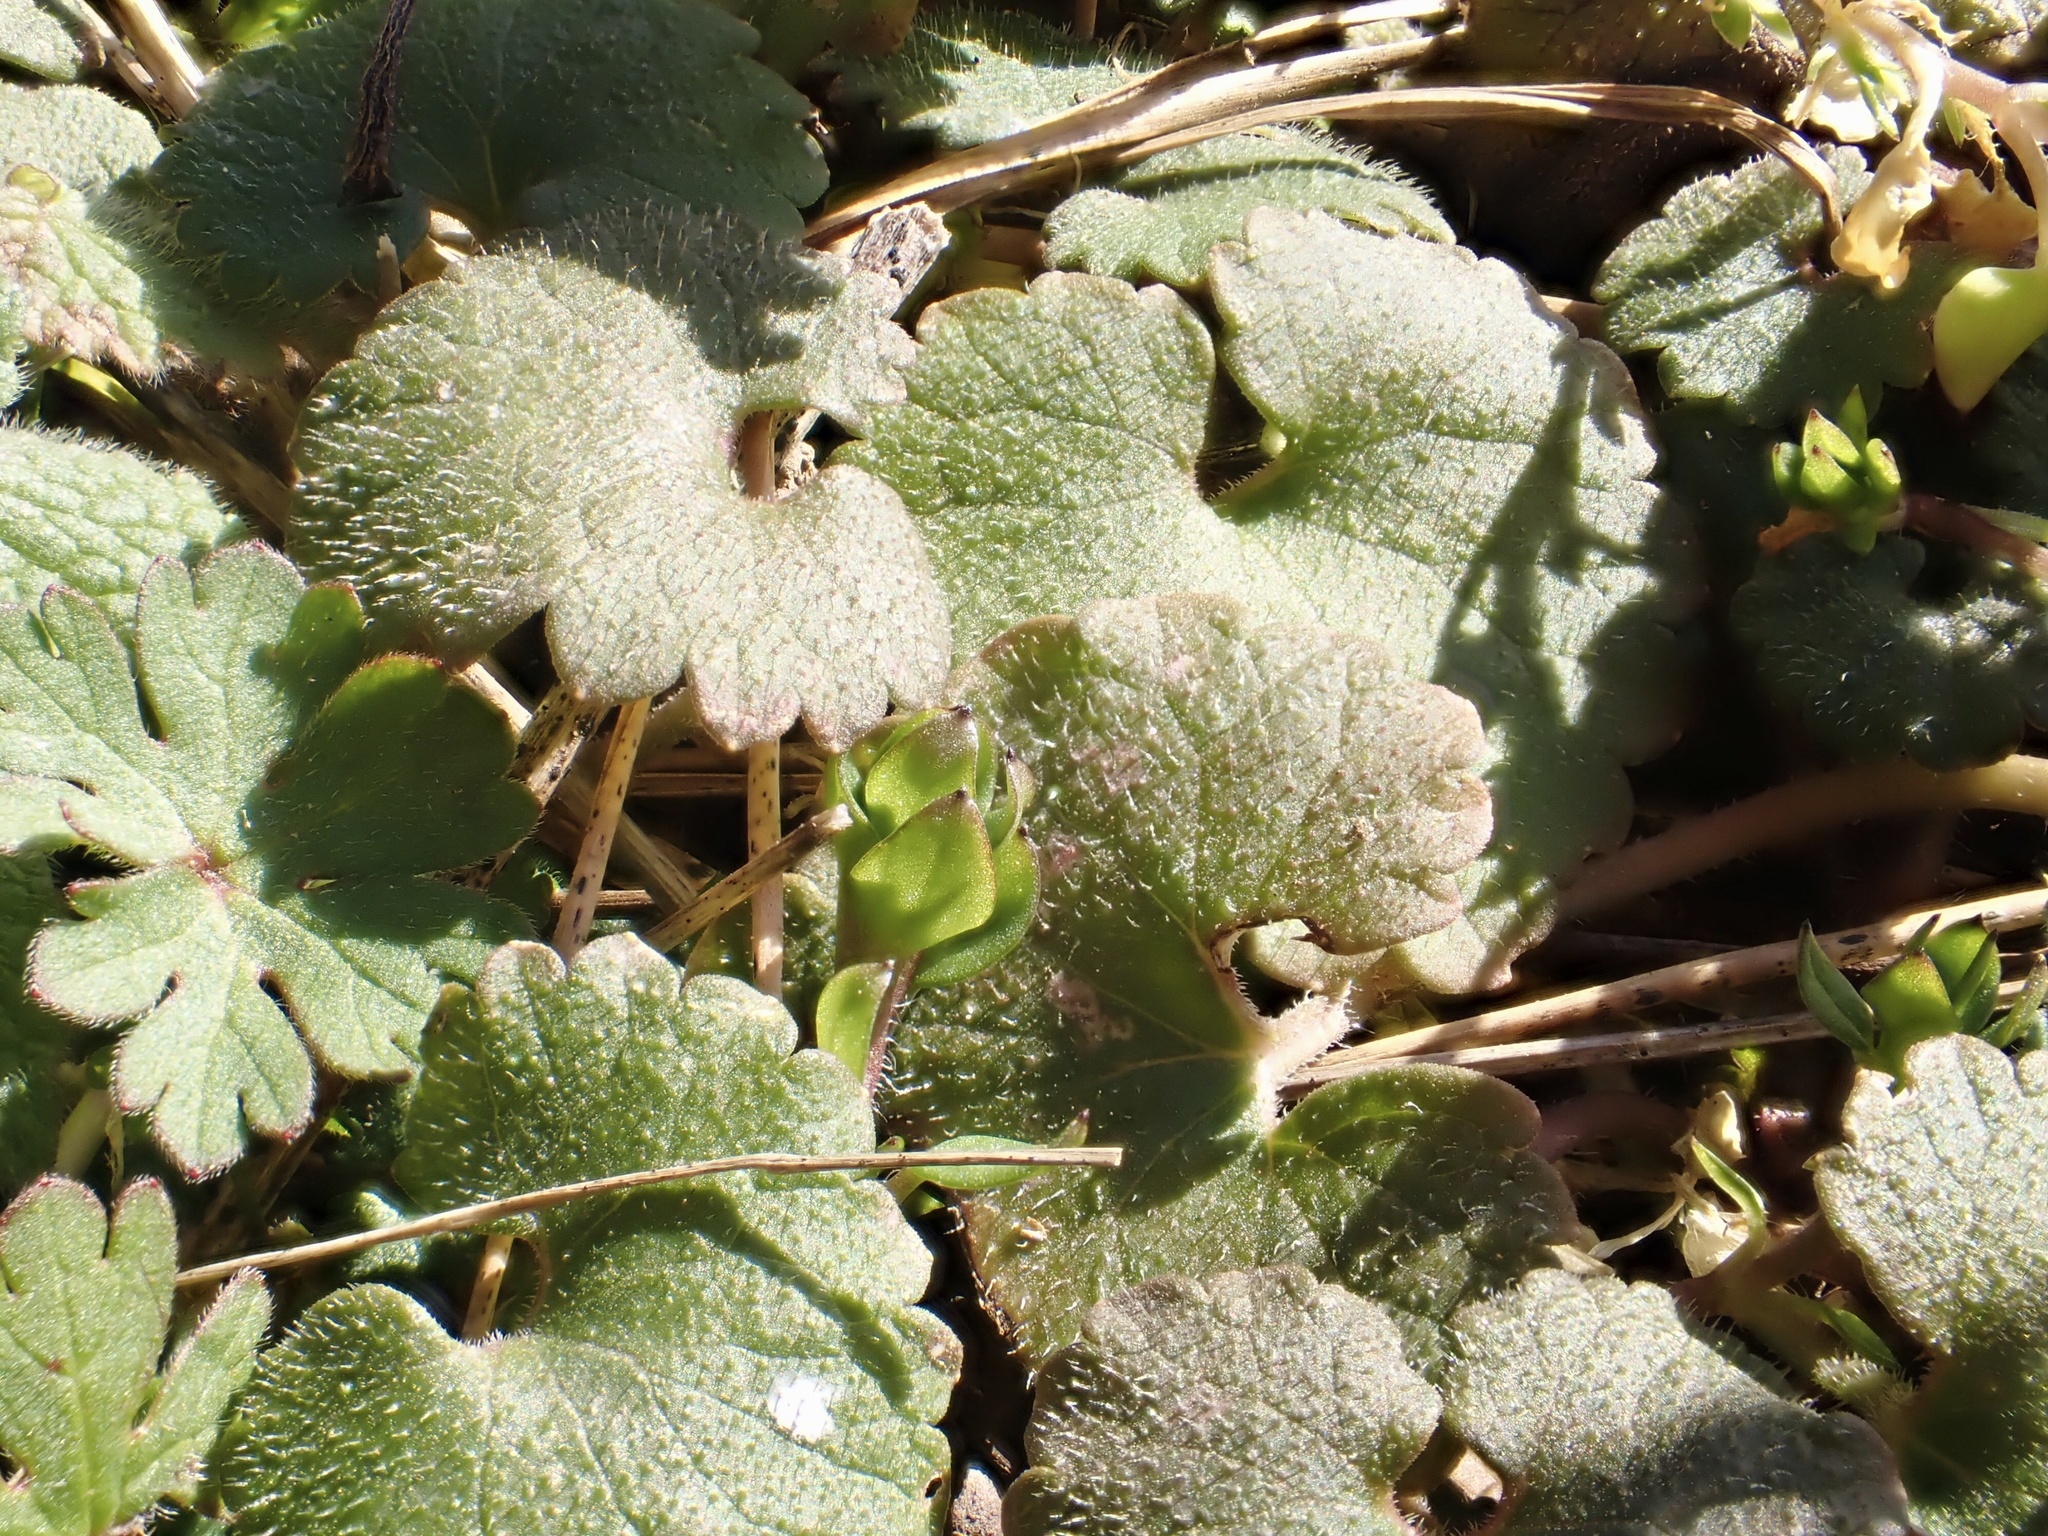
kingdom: Plantae
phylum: Tracheophyta
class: Magnoliopsida
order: Lamiales
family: Lamiaceae
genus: Glechoma
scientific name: Glechoma hederacea
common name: Ground ivy
